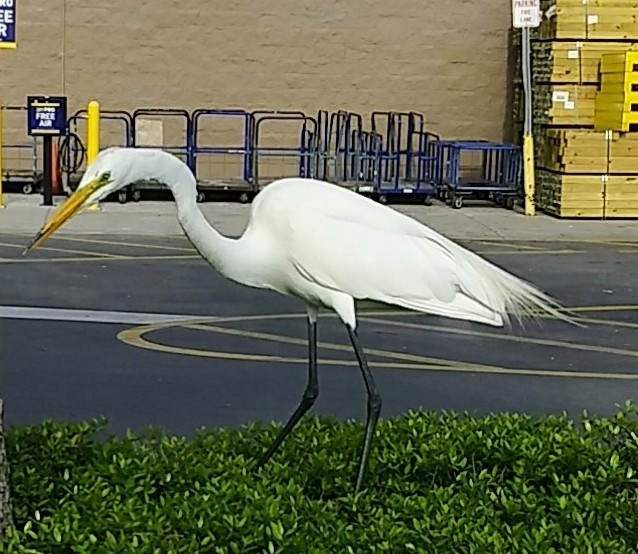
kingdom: Animalia
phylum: Chordata
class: Aves
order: Pelecaniformes
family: Ardeidae
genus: Ardea
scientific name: Ardea alba
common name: Great egret
